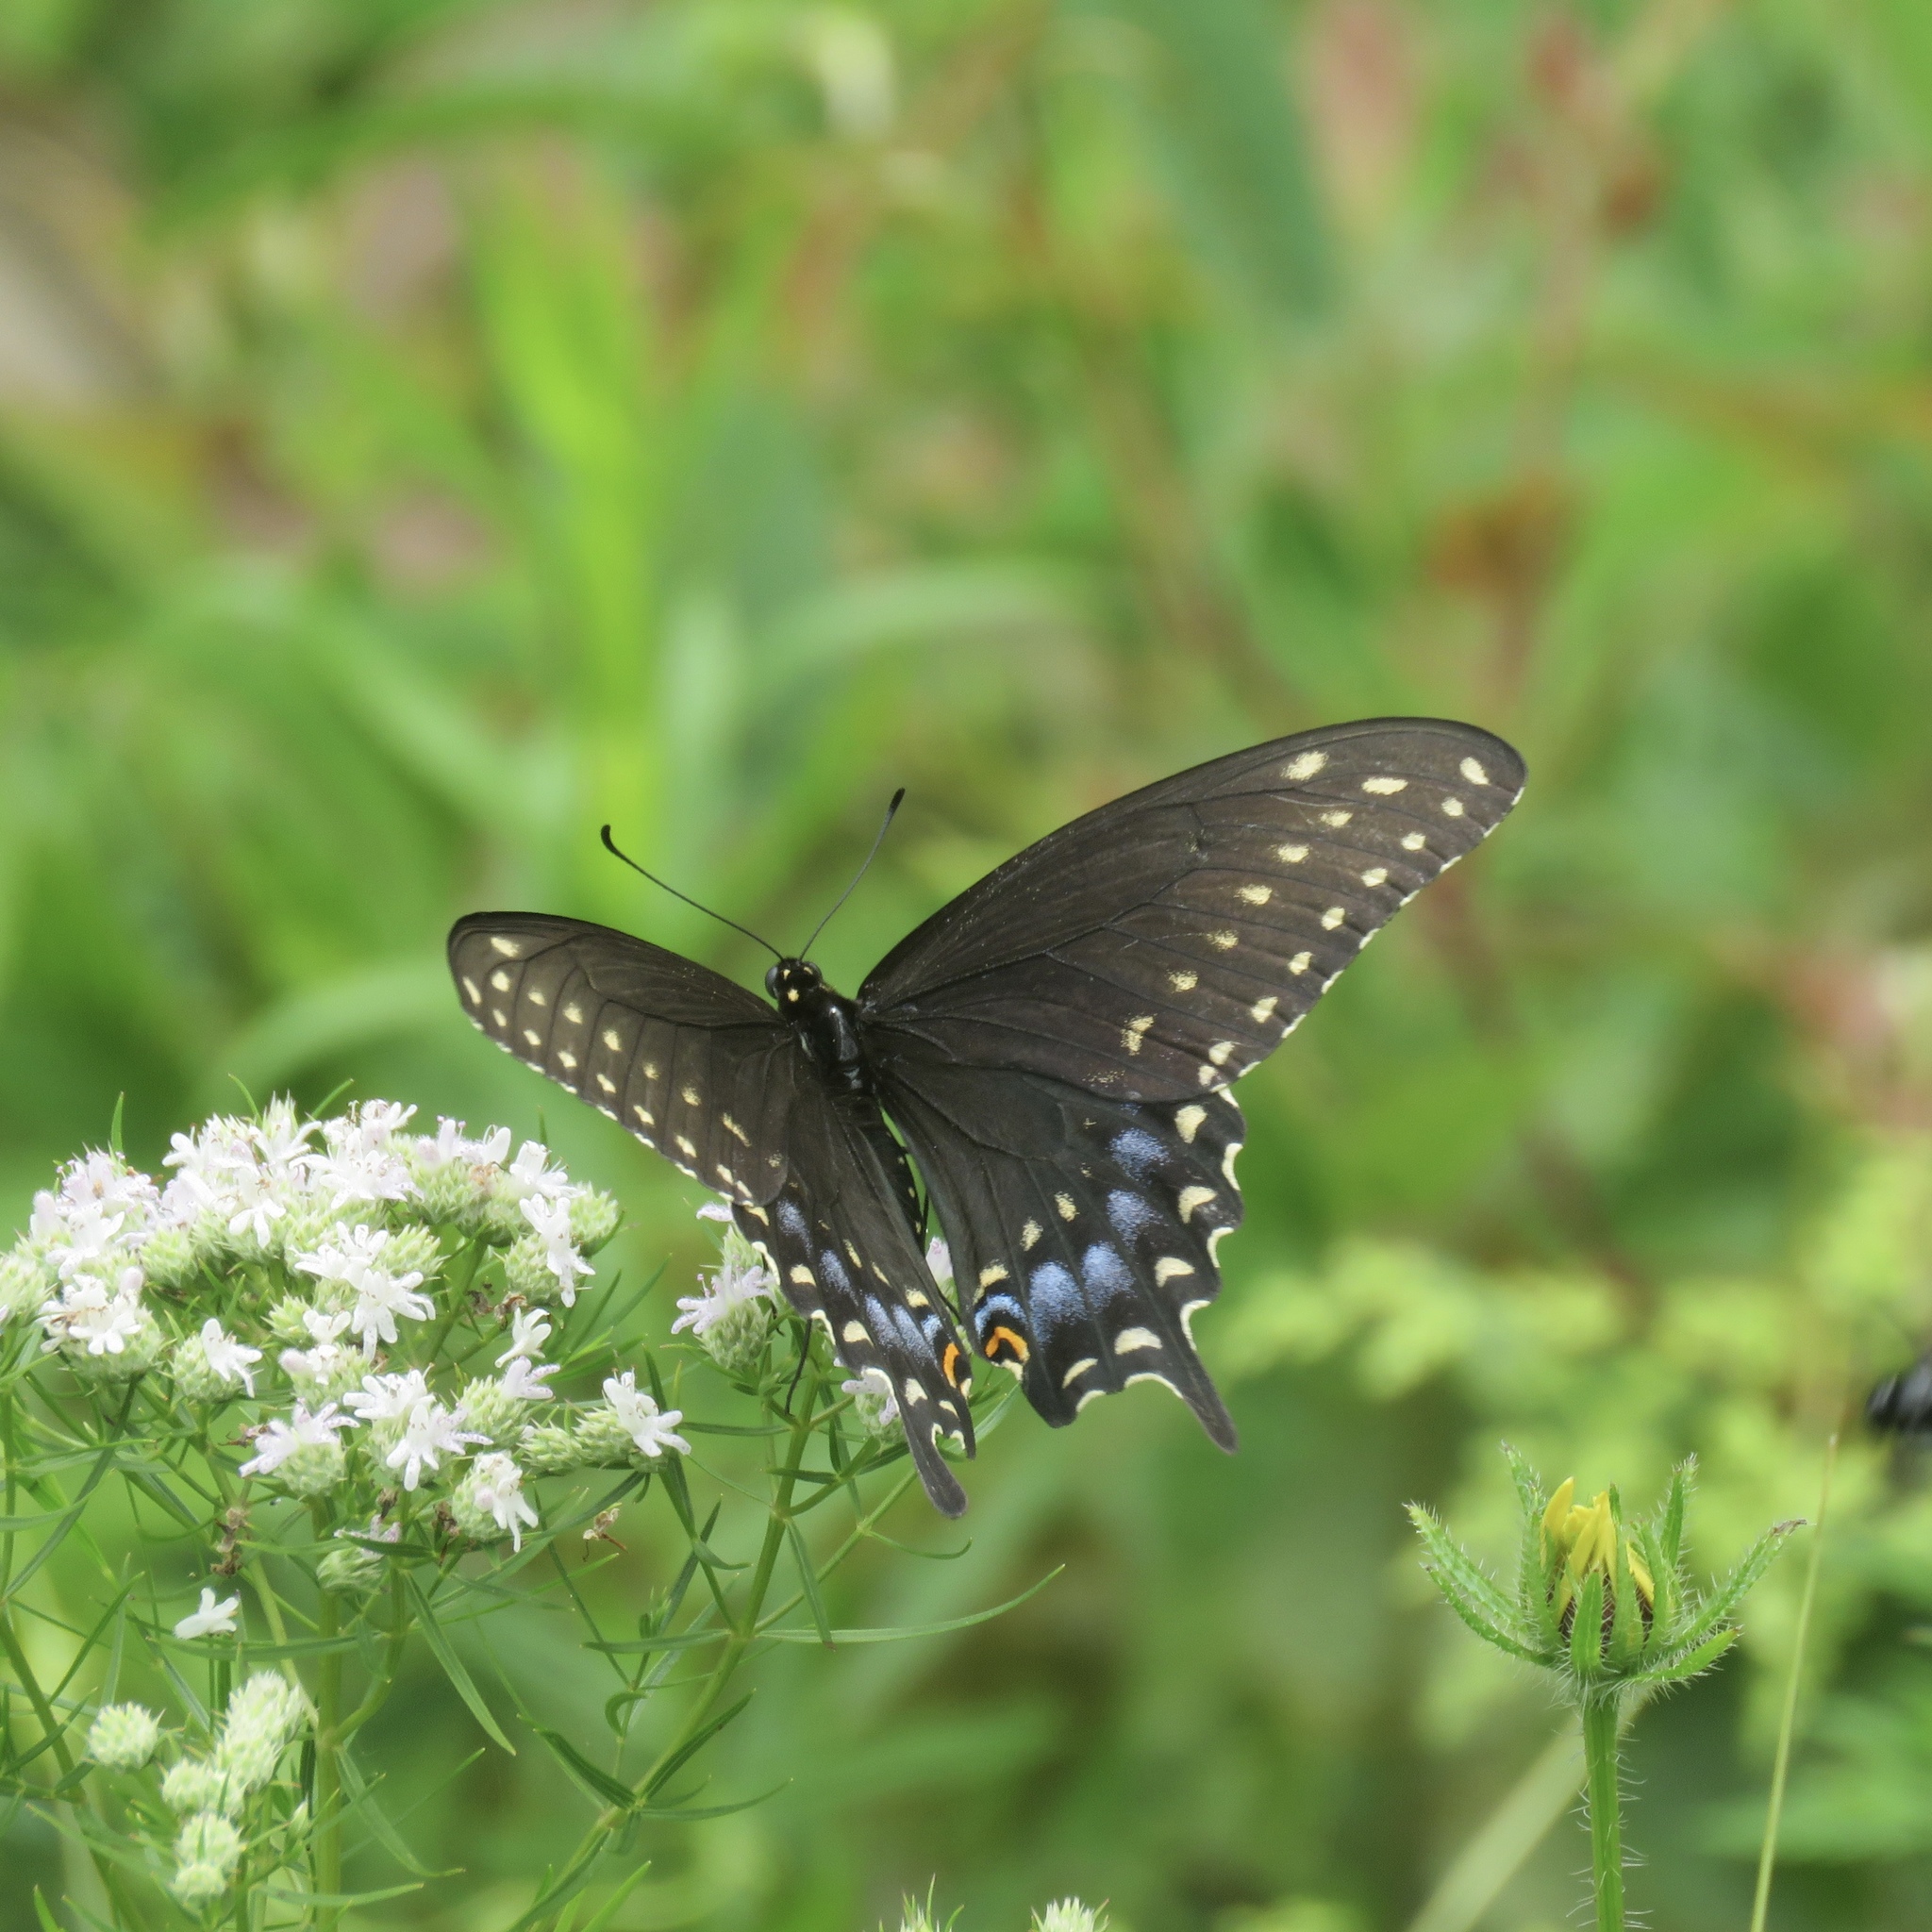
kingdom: Animalia
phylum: Arthropoda
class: Insecta
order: Lepidoptera
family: Papilionidae
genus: Papilio
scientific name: Papilio polyxenes
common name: Black swallowtail
